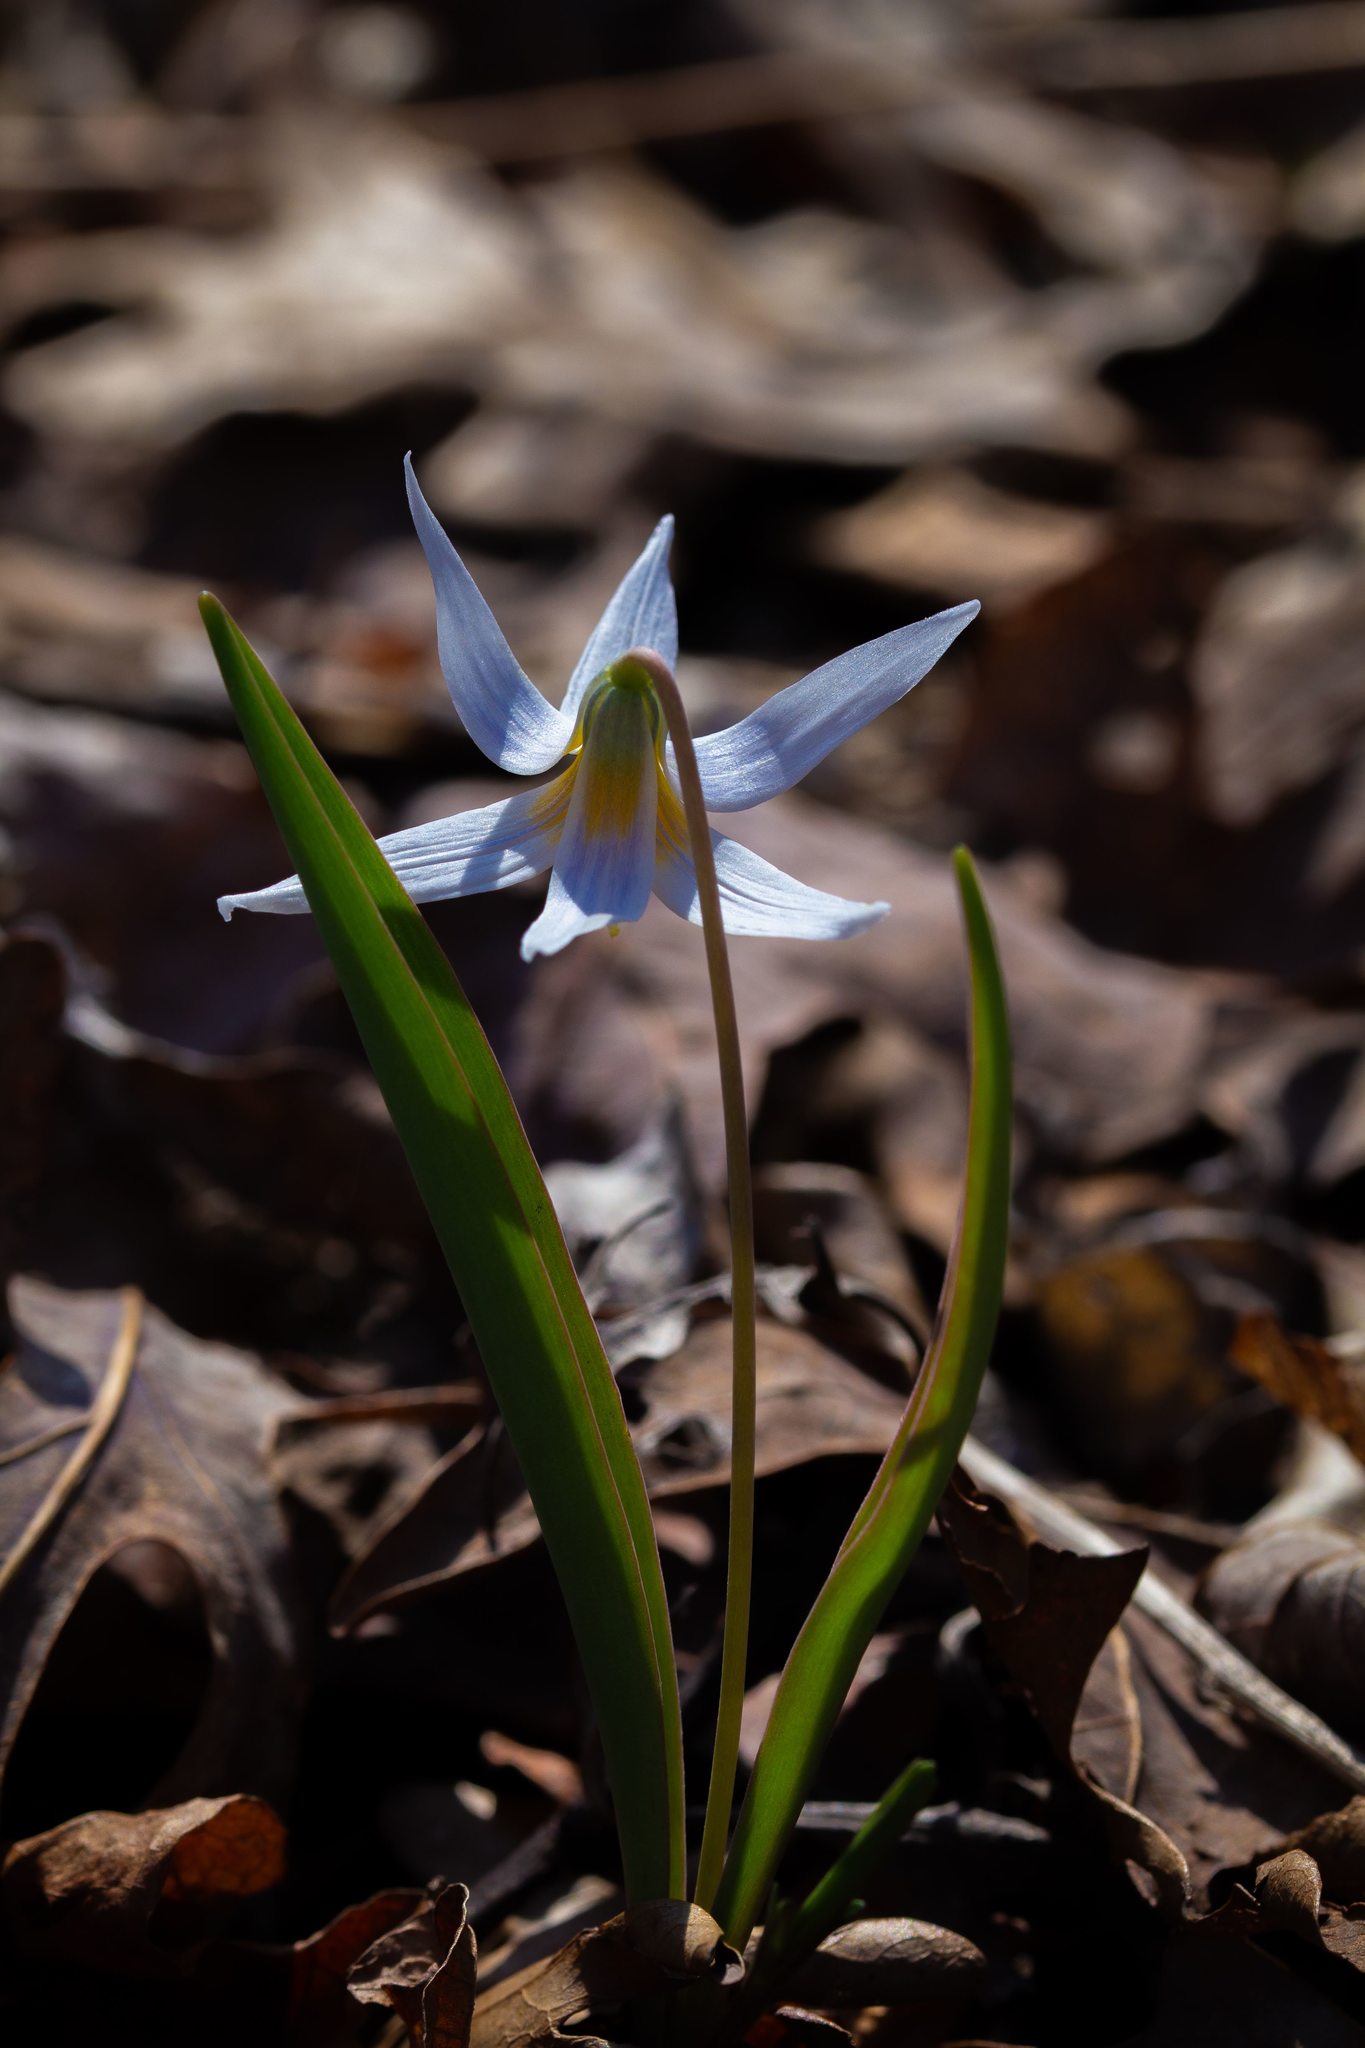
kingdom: Plantae
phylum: Tracheophyta
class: Liliopsida
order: Liliales
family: Liliaceae
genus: Erythronium
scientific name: Erythronium mesochoreum
